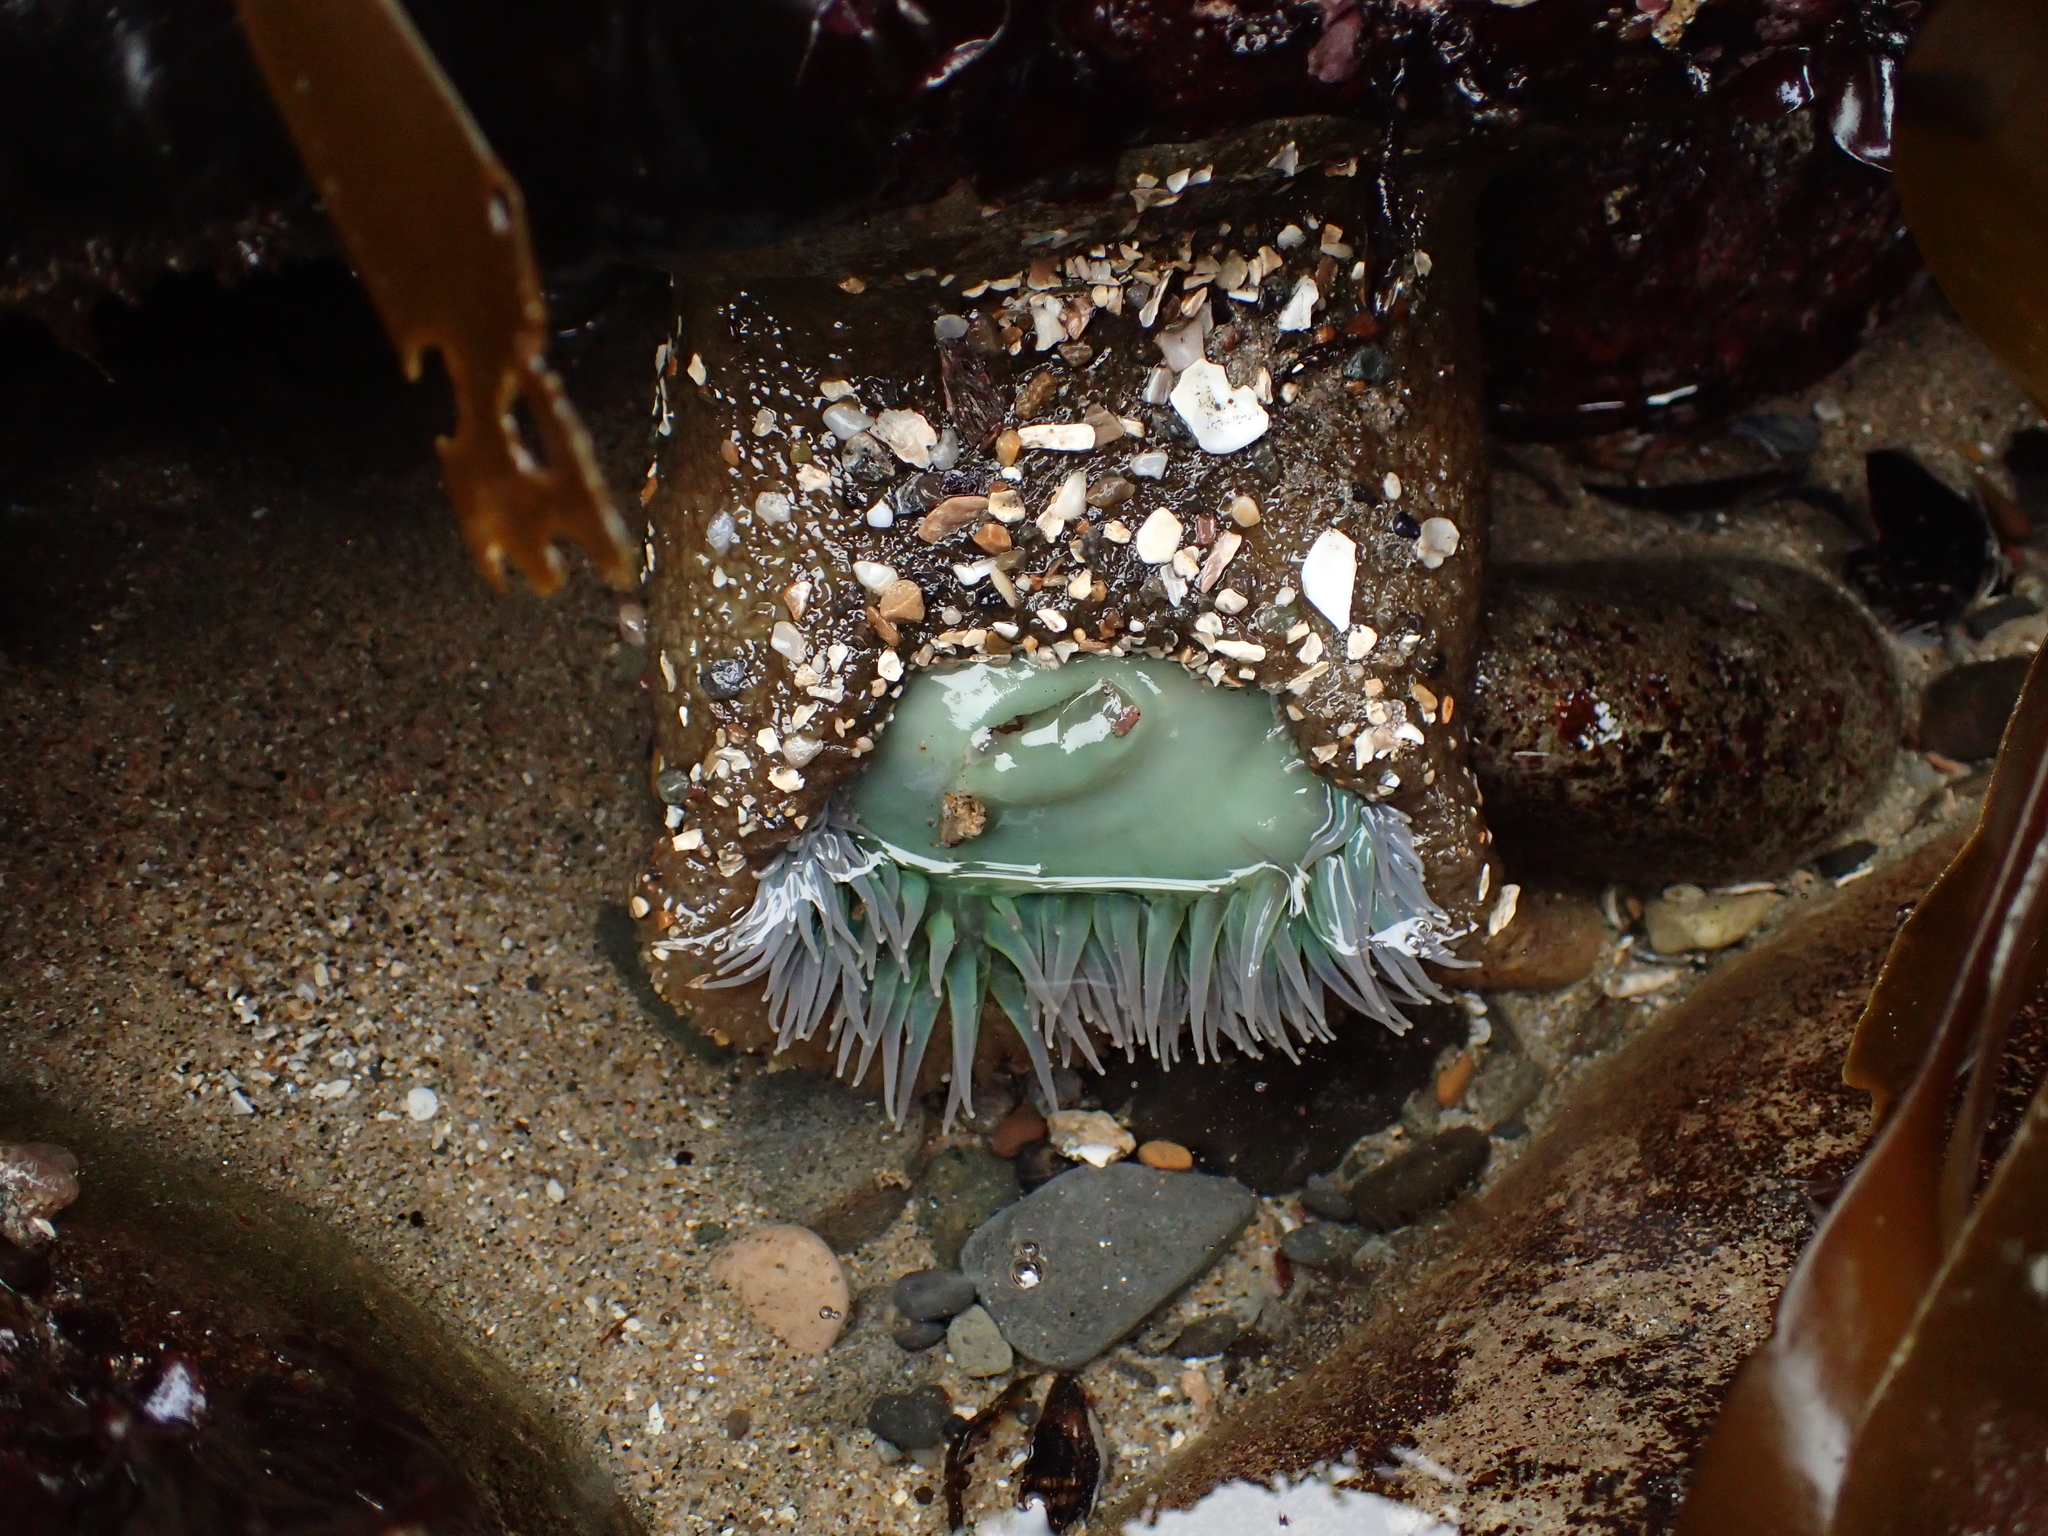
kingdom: Animalia
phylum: Cnidaria
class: Anthozoa
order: Actiniaria
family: Actiniidae
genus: Anthopleura
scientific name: Anthopleura xanthogrammica
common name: Giant green anemone
